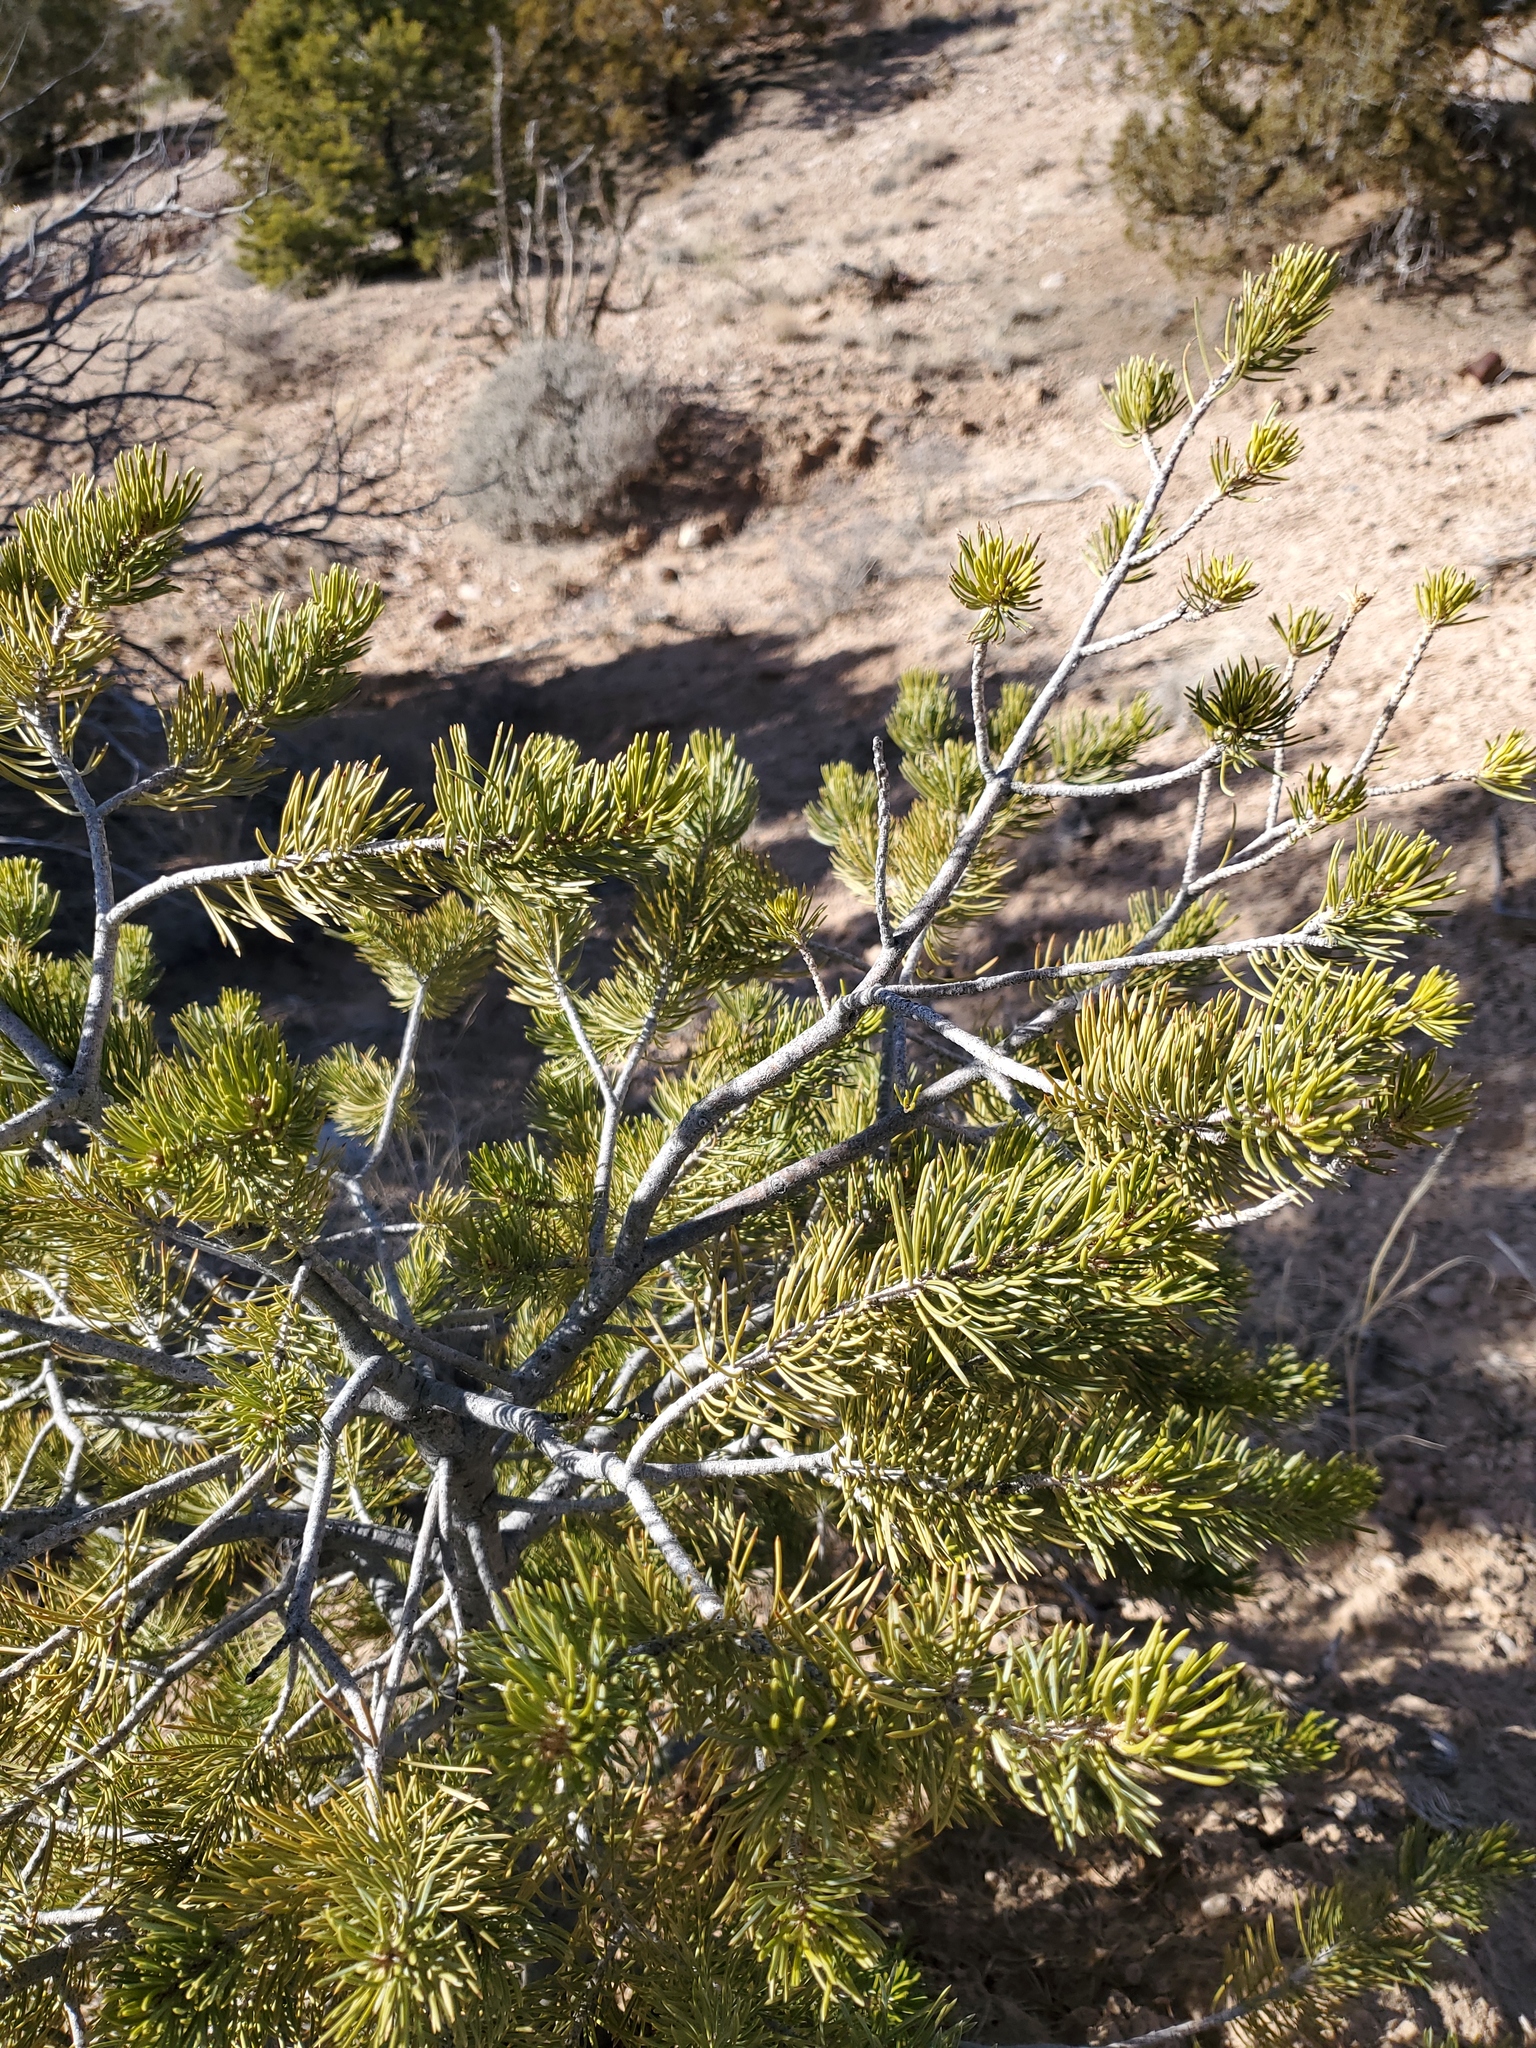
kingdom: Plantae
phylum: Tracheophyta
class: Pinopsida
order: Pinales
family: Pinaceae
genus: Pinus
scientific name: Pinus edulis
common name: Colorado pinyon
